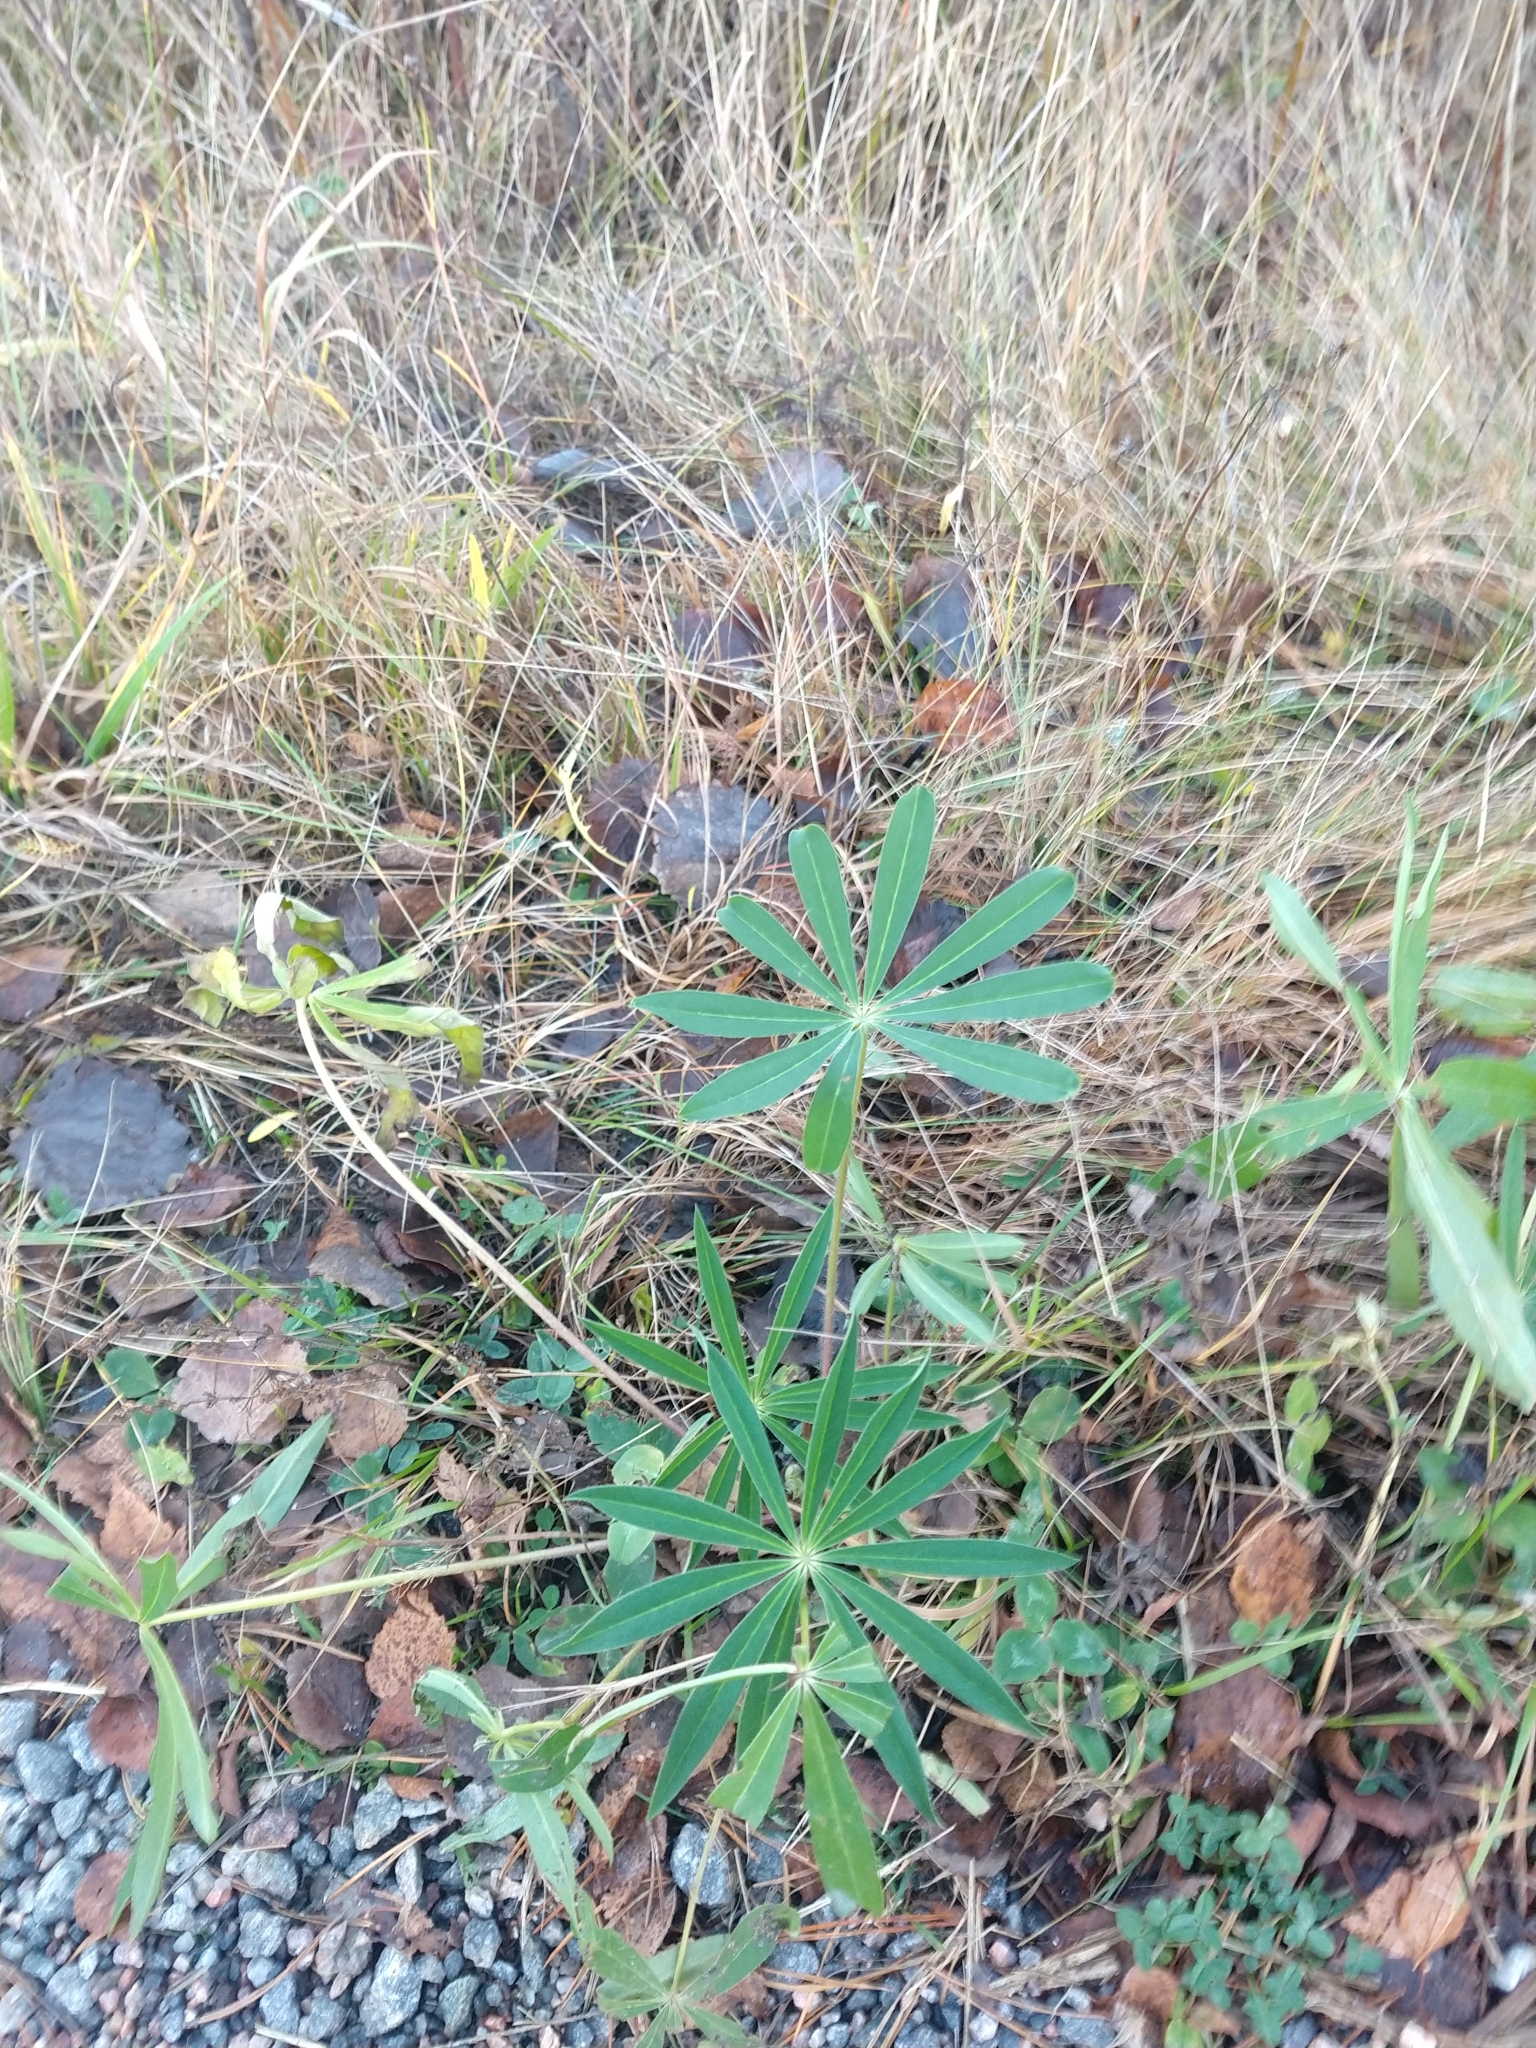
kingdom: Plantae
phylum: Tracheophyta
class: Magnoliopsida
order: Fabales
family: Fabaceae
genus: Lupinus
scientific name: Lupinus polyphyllus
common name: Garden lupin
